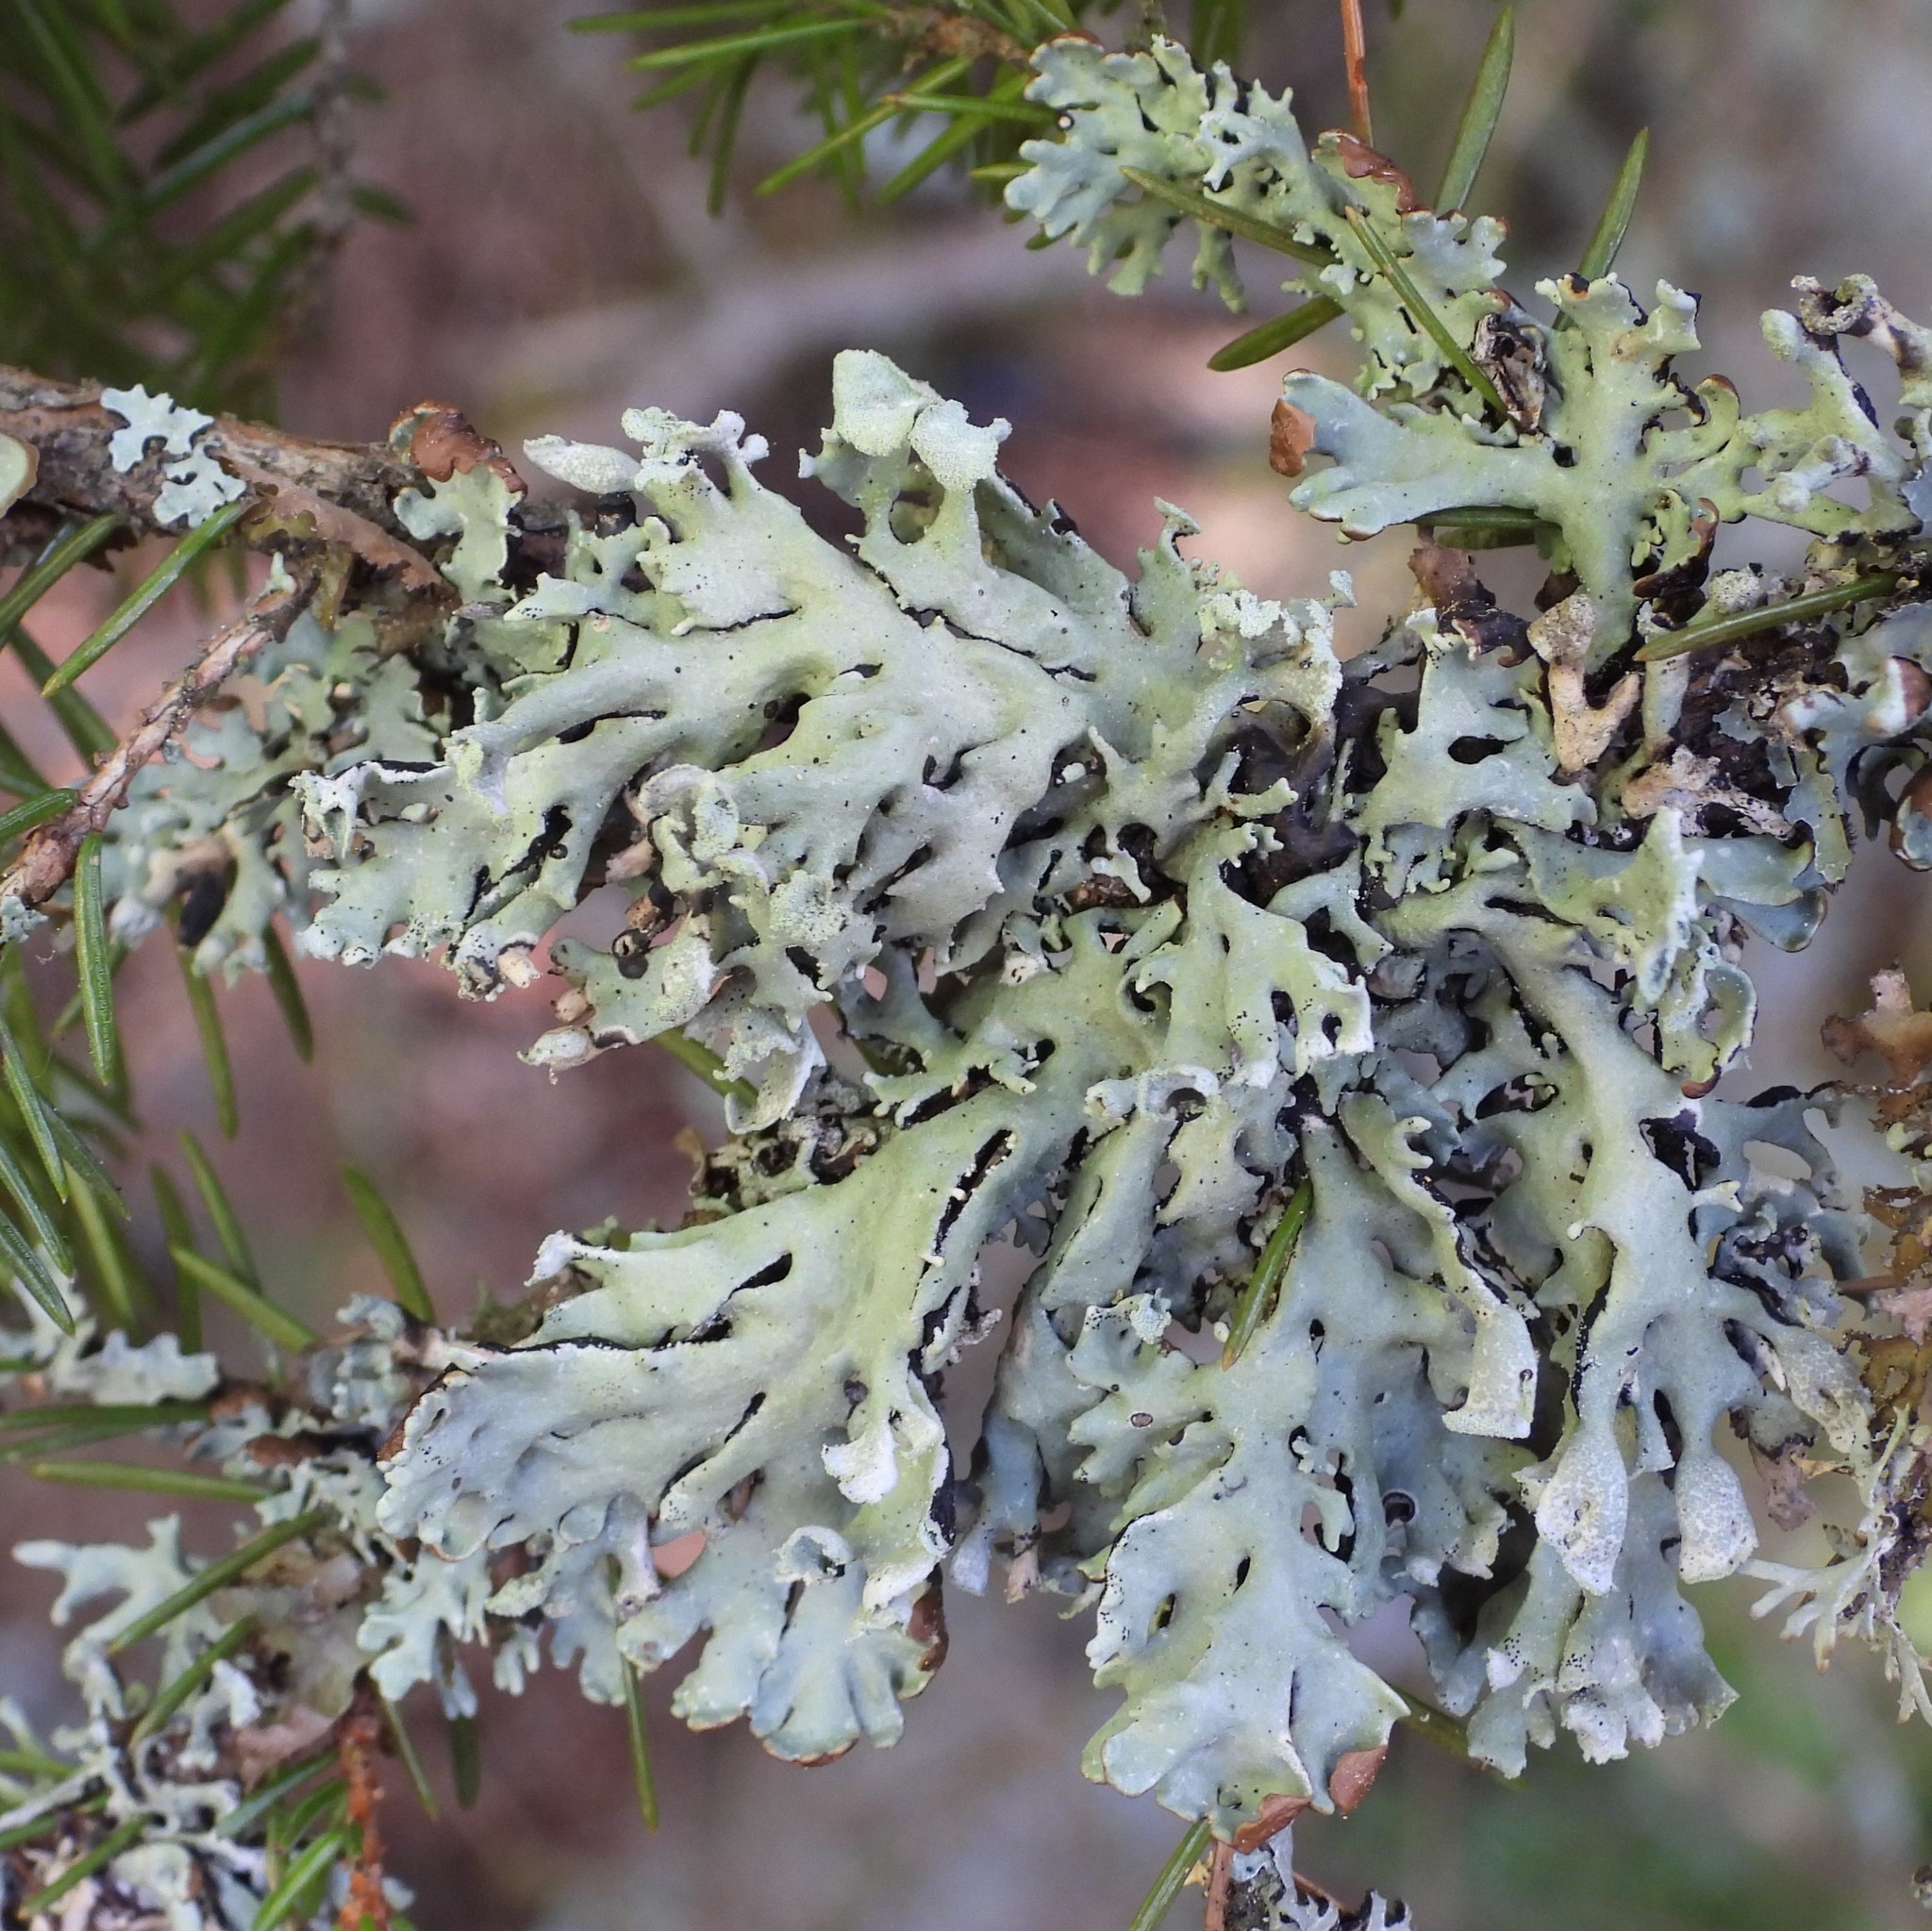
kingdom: Fungi
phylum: Ascomycota
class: Lecanoromycetes
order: Lecanorales
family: Parmeliaceae
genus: Hypogymnia
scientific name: Hypogymnia physodes
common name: Dark crottle
